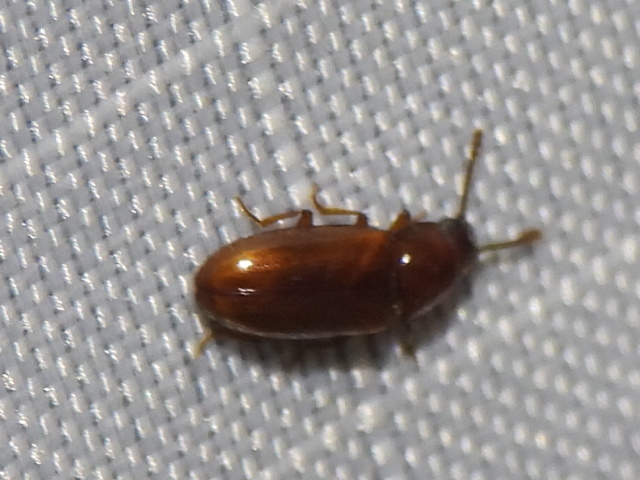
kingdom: Animalia
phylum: Arthropoda
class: Insecta
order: Coleoptera
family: Erotylidae
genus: Pharaxonotha
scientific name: Pharaxonotha kirschii
